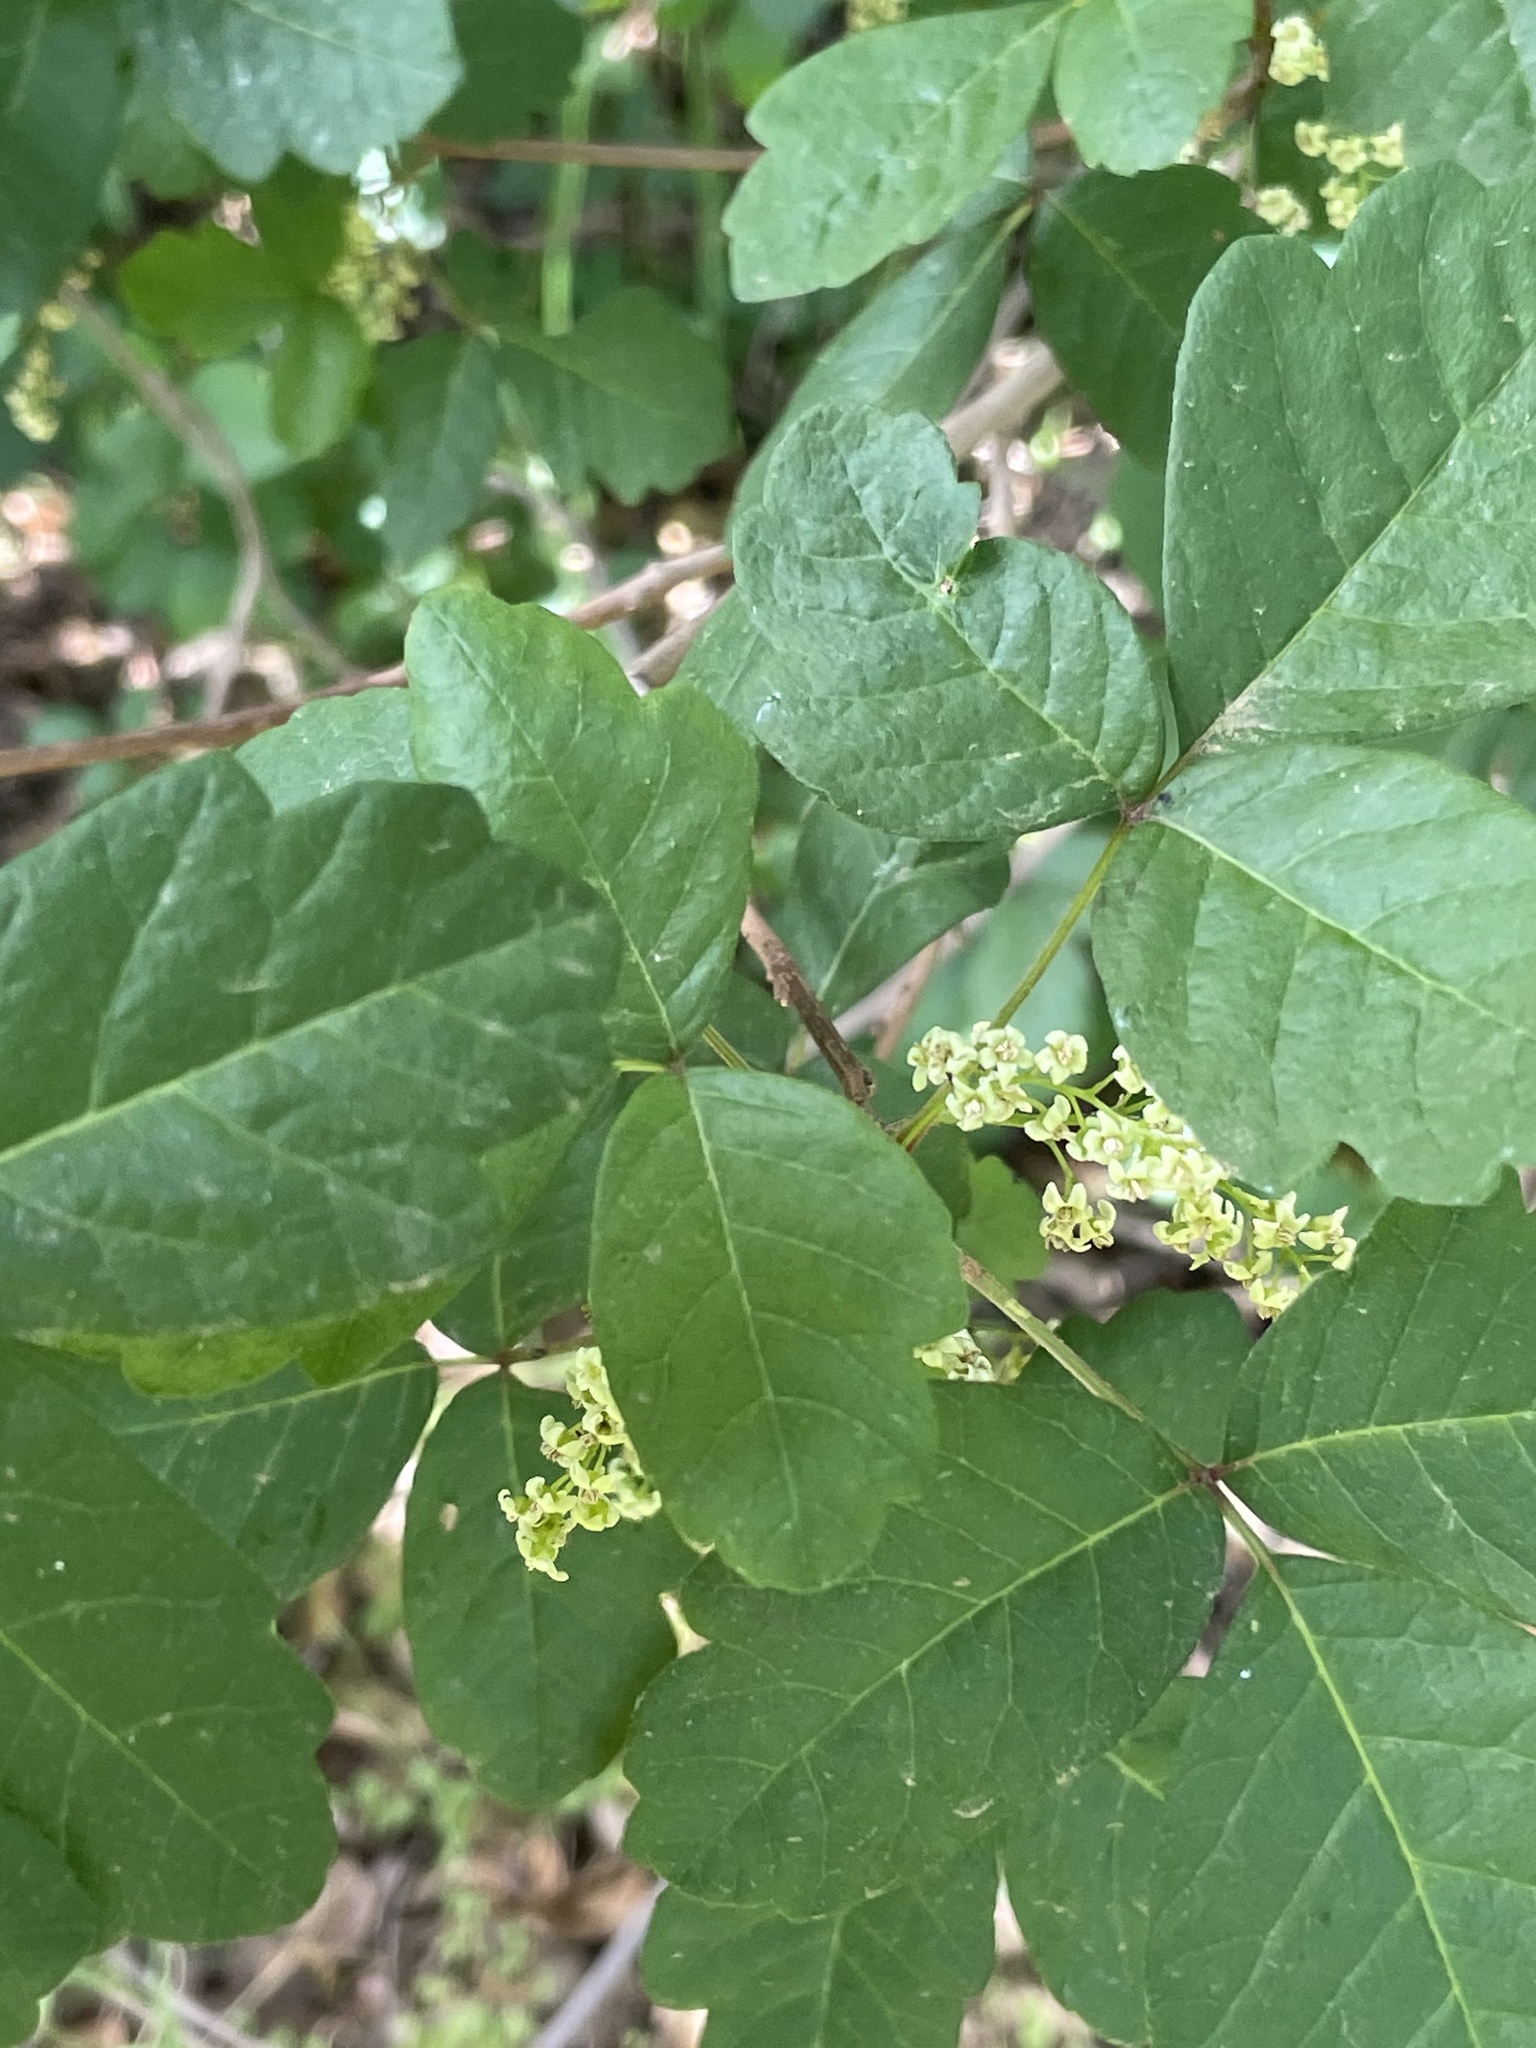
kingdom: Plantae
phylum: Tracheophyta
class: Magnoliopsida
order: Sapindales
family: Anacardiaceae
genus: Toxicodendron
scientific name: Toxicodendron diversilobum
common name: Pacific poison-oak
